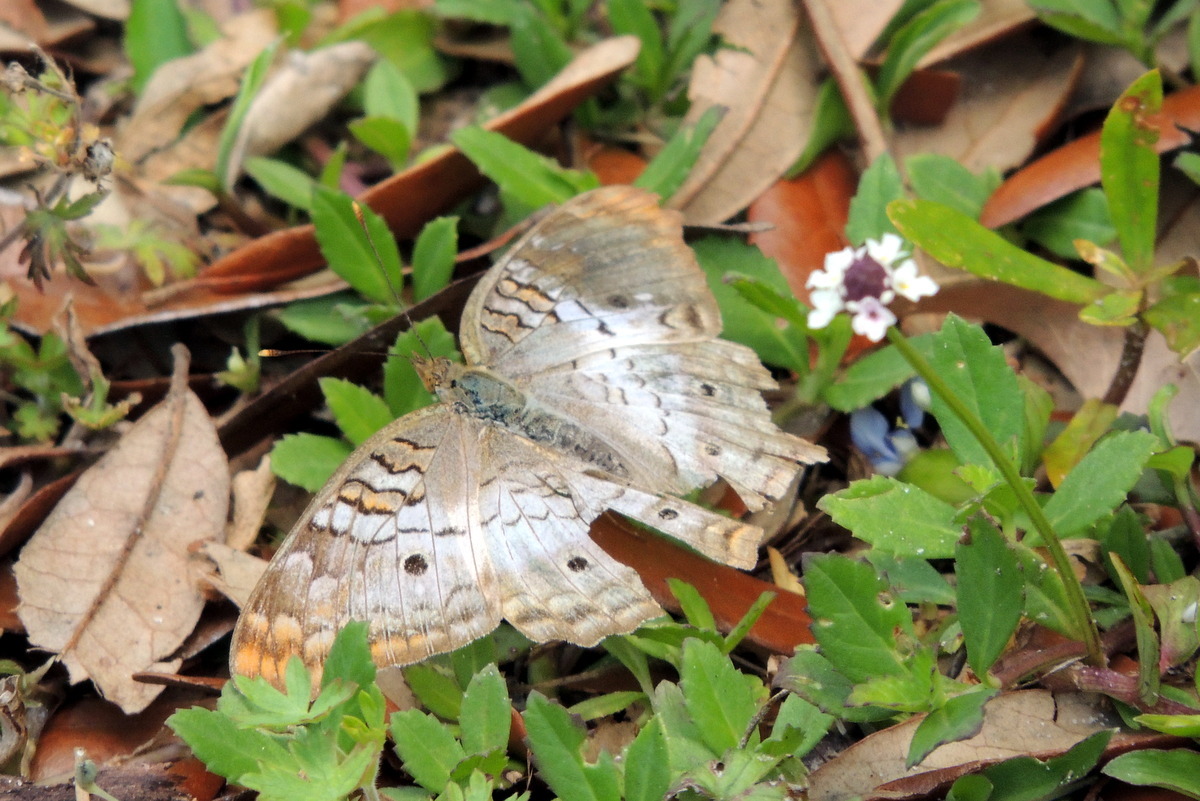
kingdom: Animalia
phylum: Arthropoda
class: Insecta
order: Lepidoptera
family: Nymphalidae
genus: Anartia
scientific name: Anartia jatrophae
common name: White peacock
